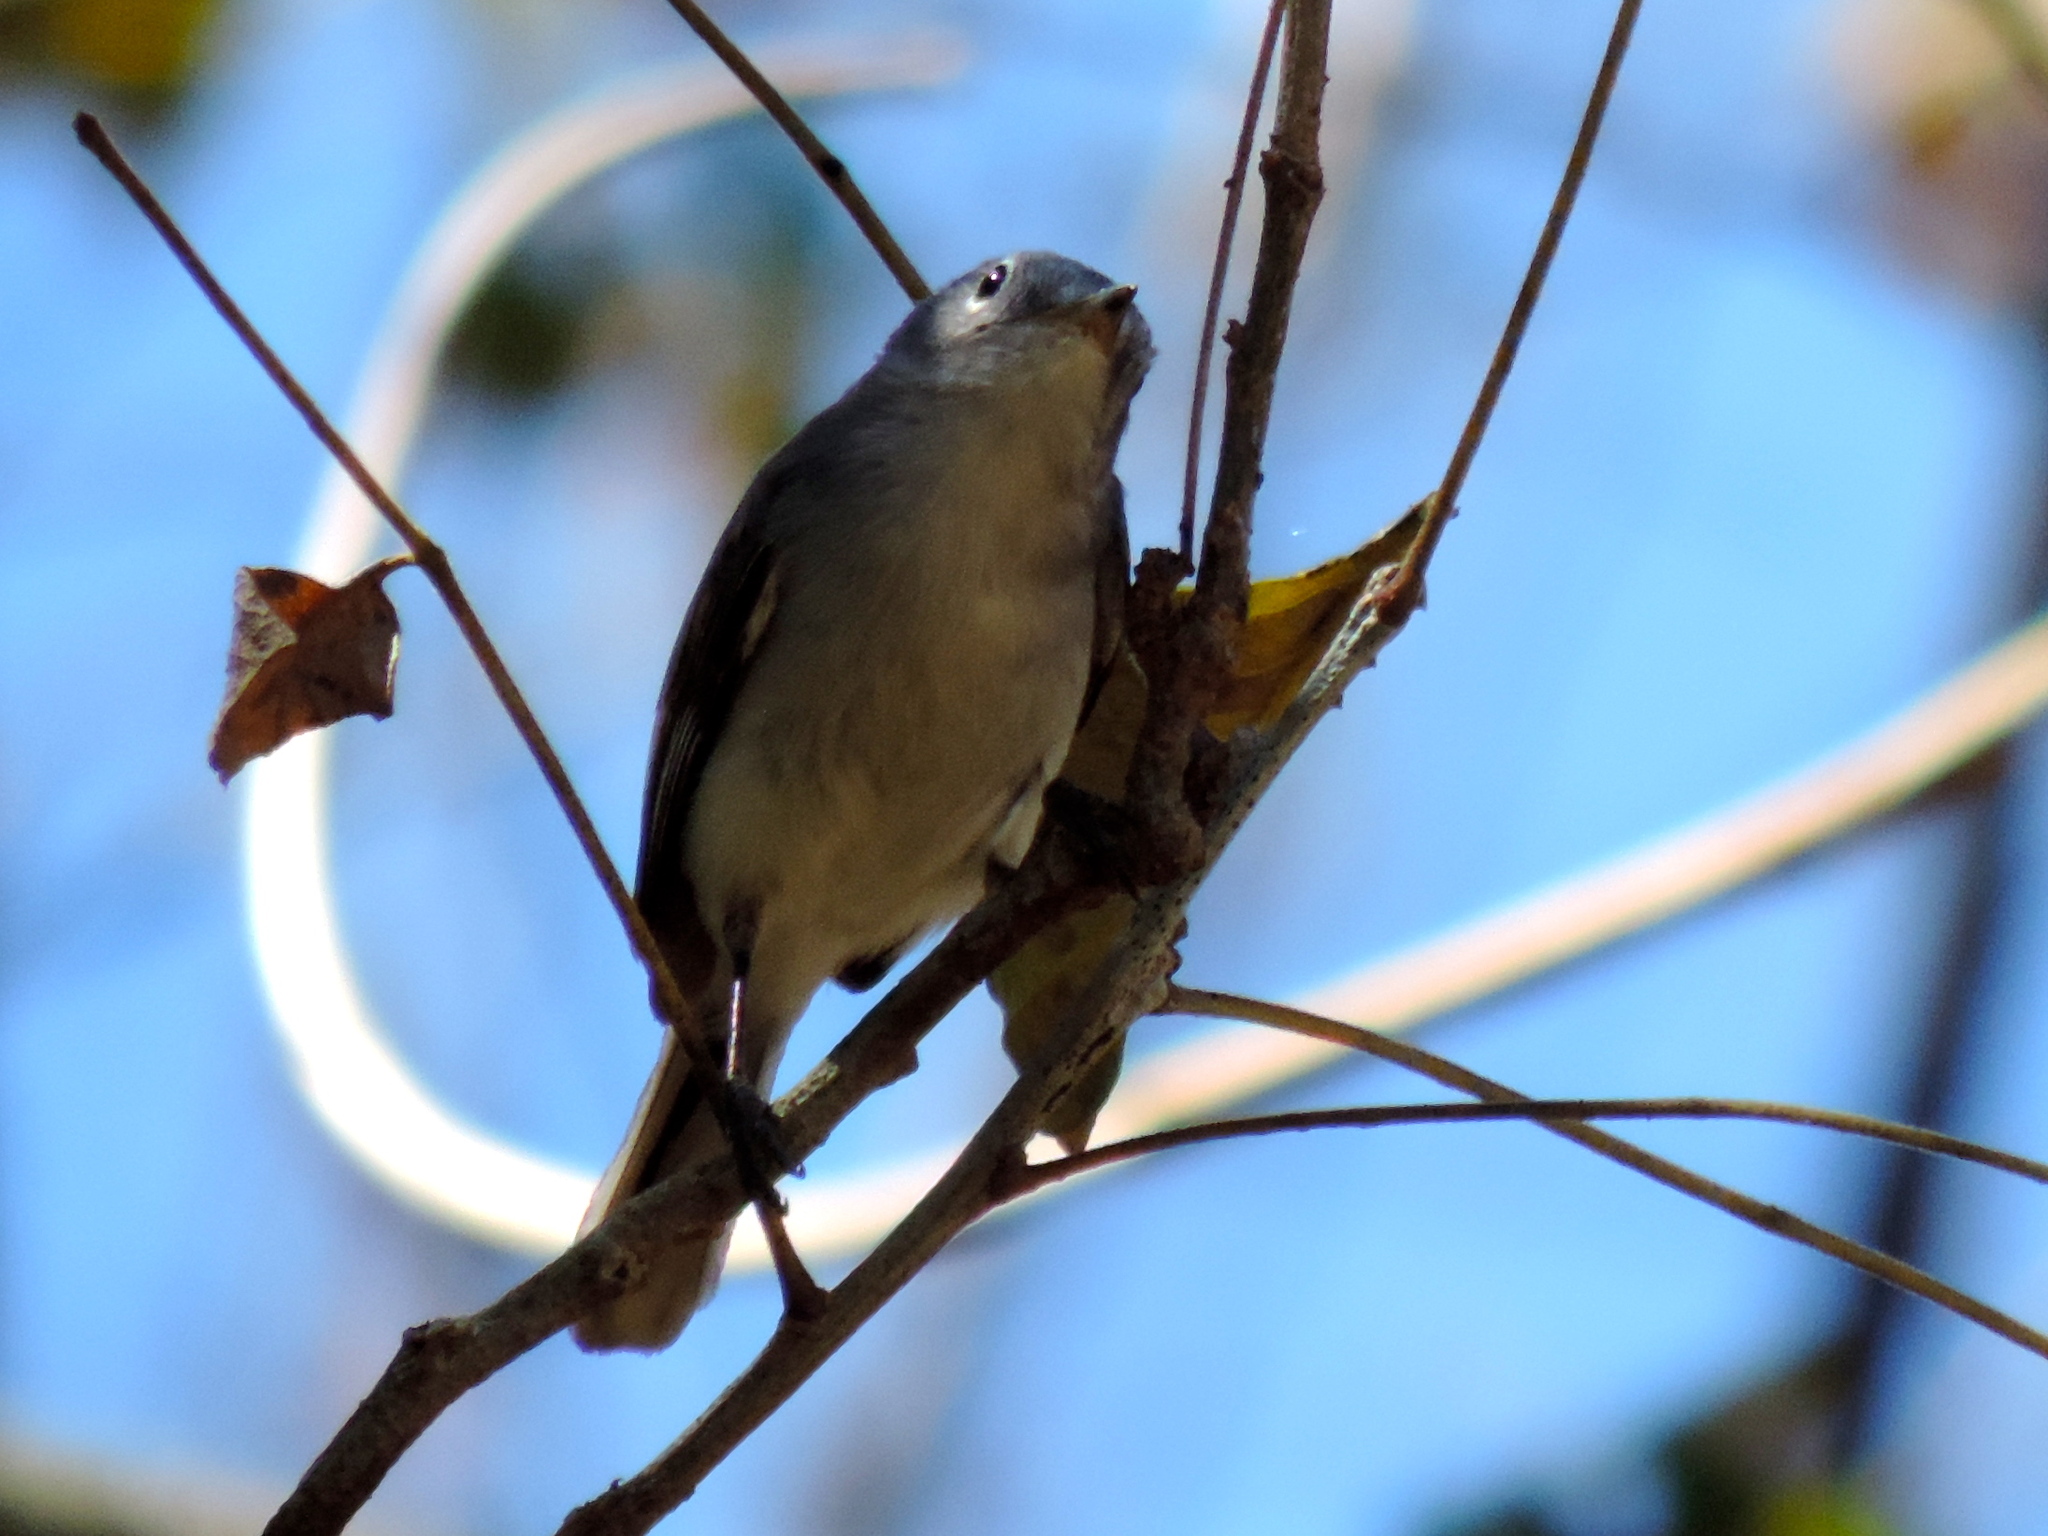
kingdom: Animalia
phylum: Chordata
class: Aves
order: Passeriformes
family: Polioptilidae
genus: Polioptila
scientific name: Polioptila caerulea
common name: Blue-gray gnatcatcher
